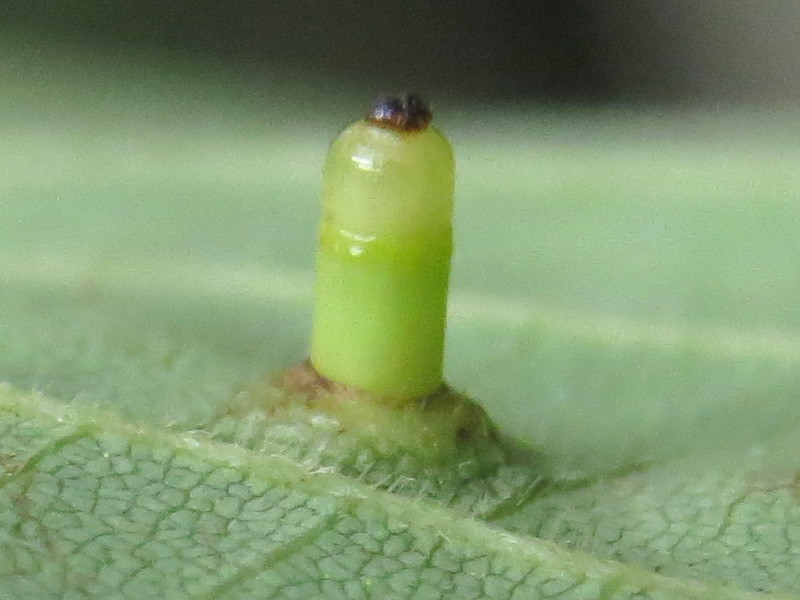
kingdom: Animalia
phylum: Arthropoda
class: Insecta
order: Diptera
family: Cecidomyiidae
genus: Caryomyia
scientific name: Caryomyia tubicola
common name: Hickory bullet gall midge
